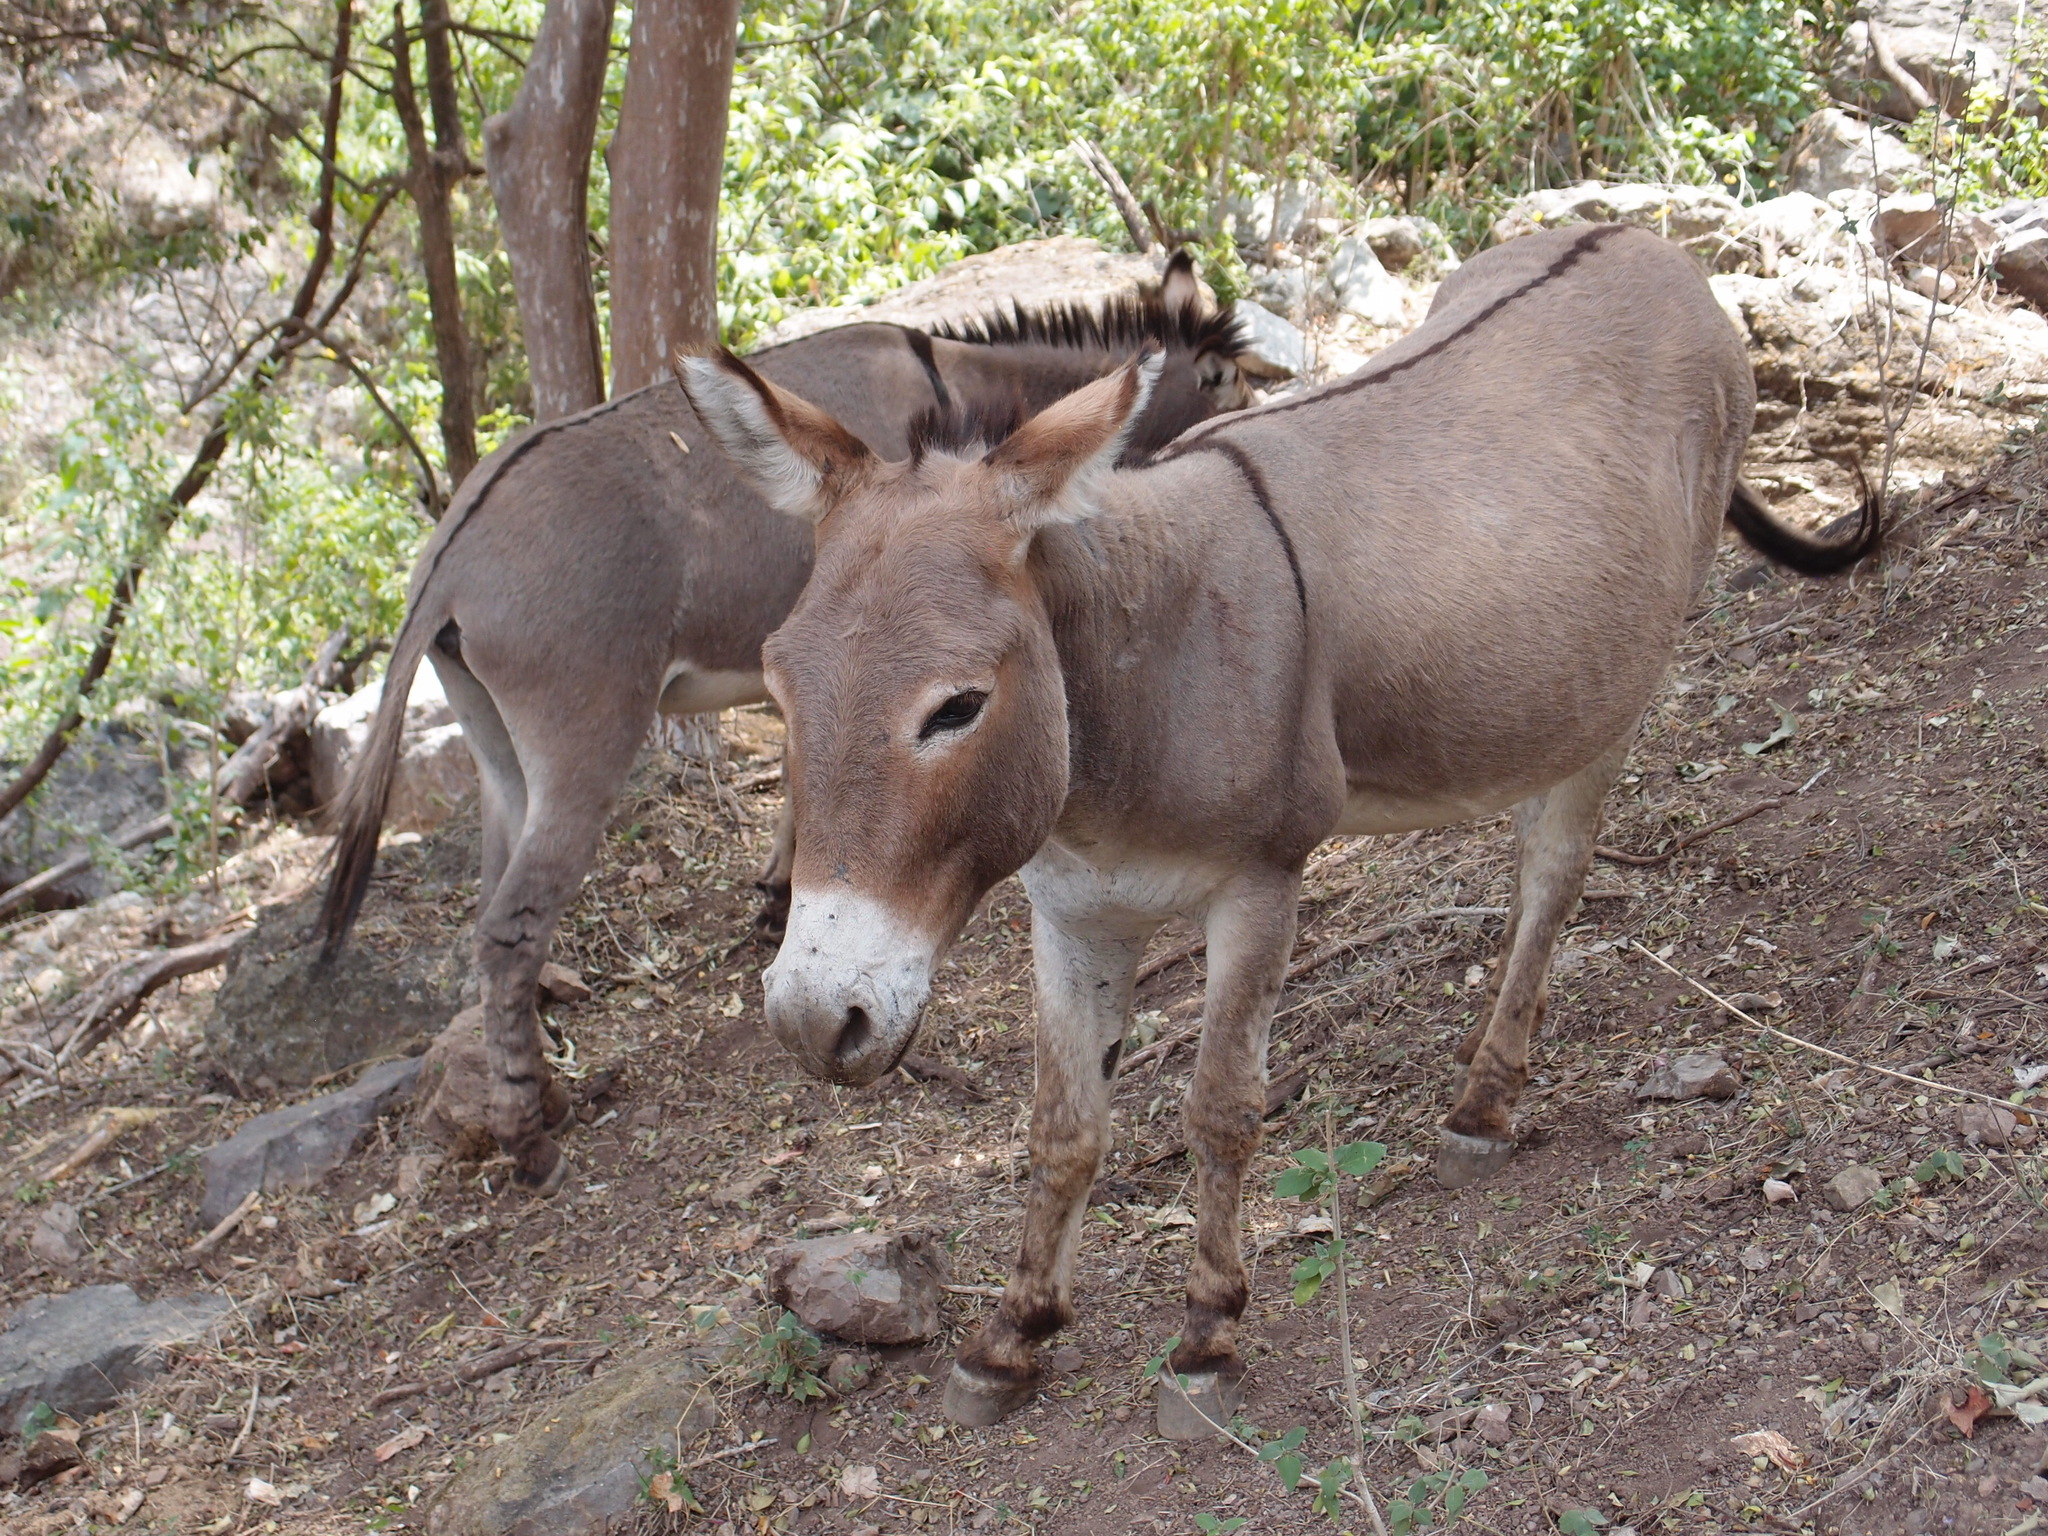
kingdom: Animalia
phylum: Chordata
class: Mammalia
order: Perissodactyla
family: Equidae
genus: Equus
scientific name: Equus asinus
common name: Ass
